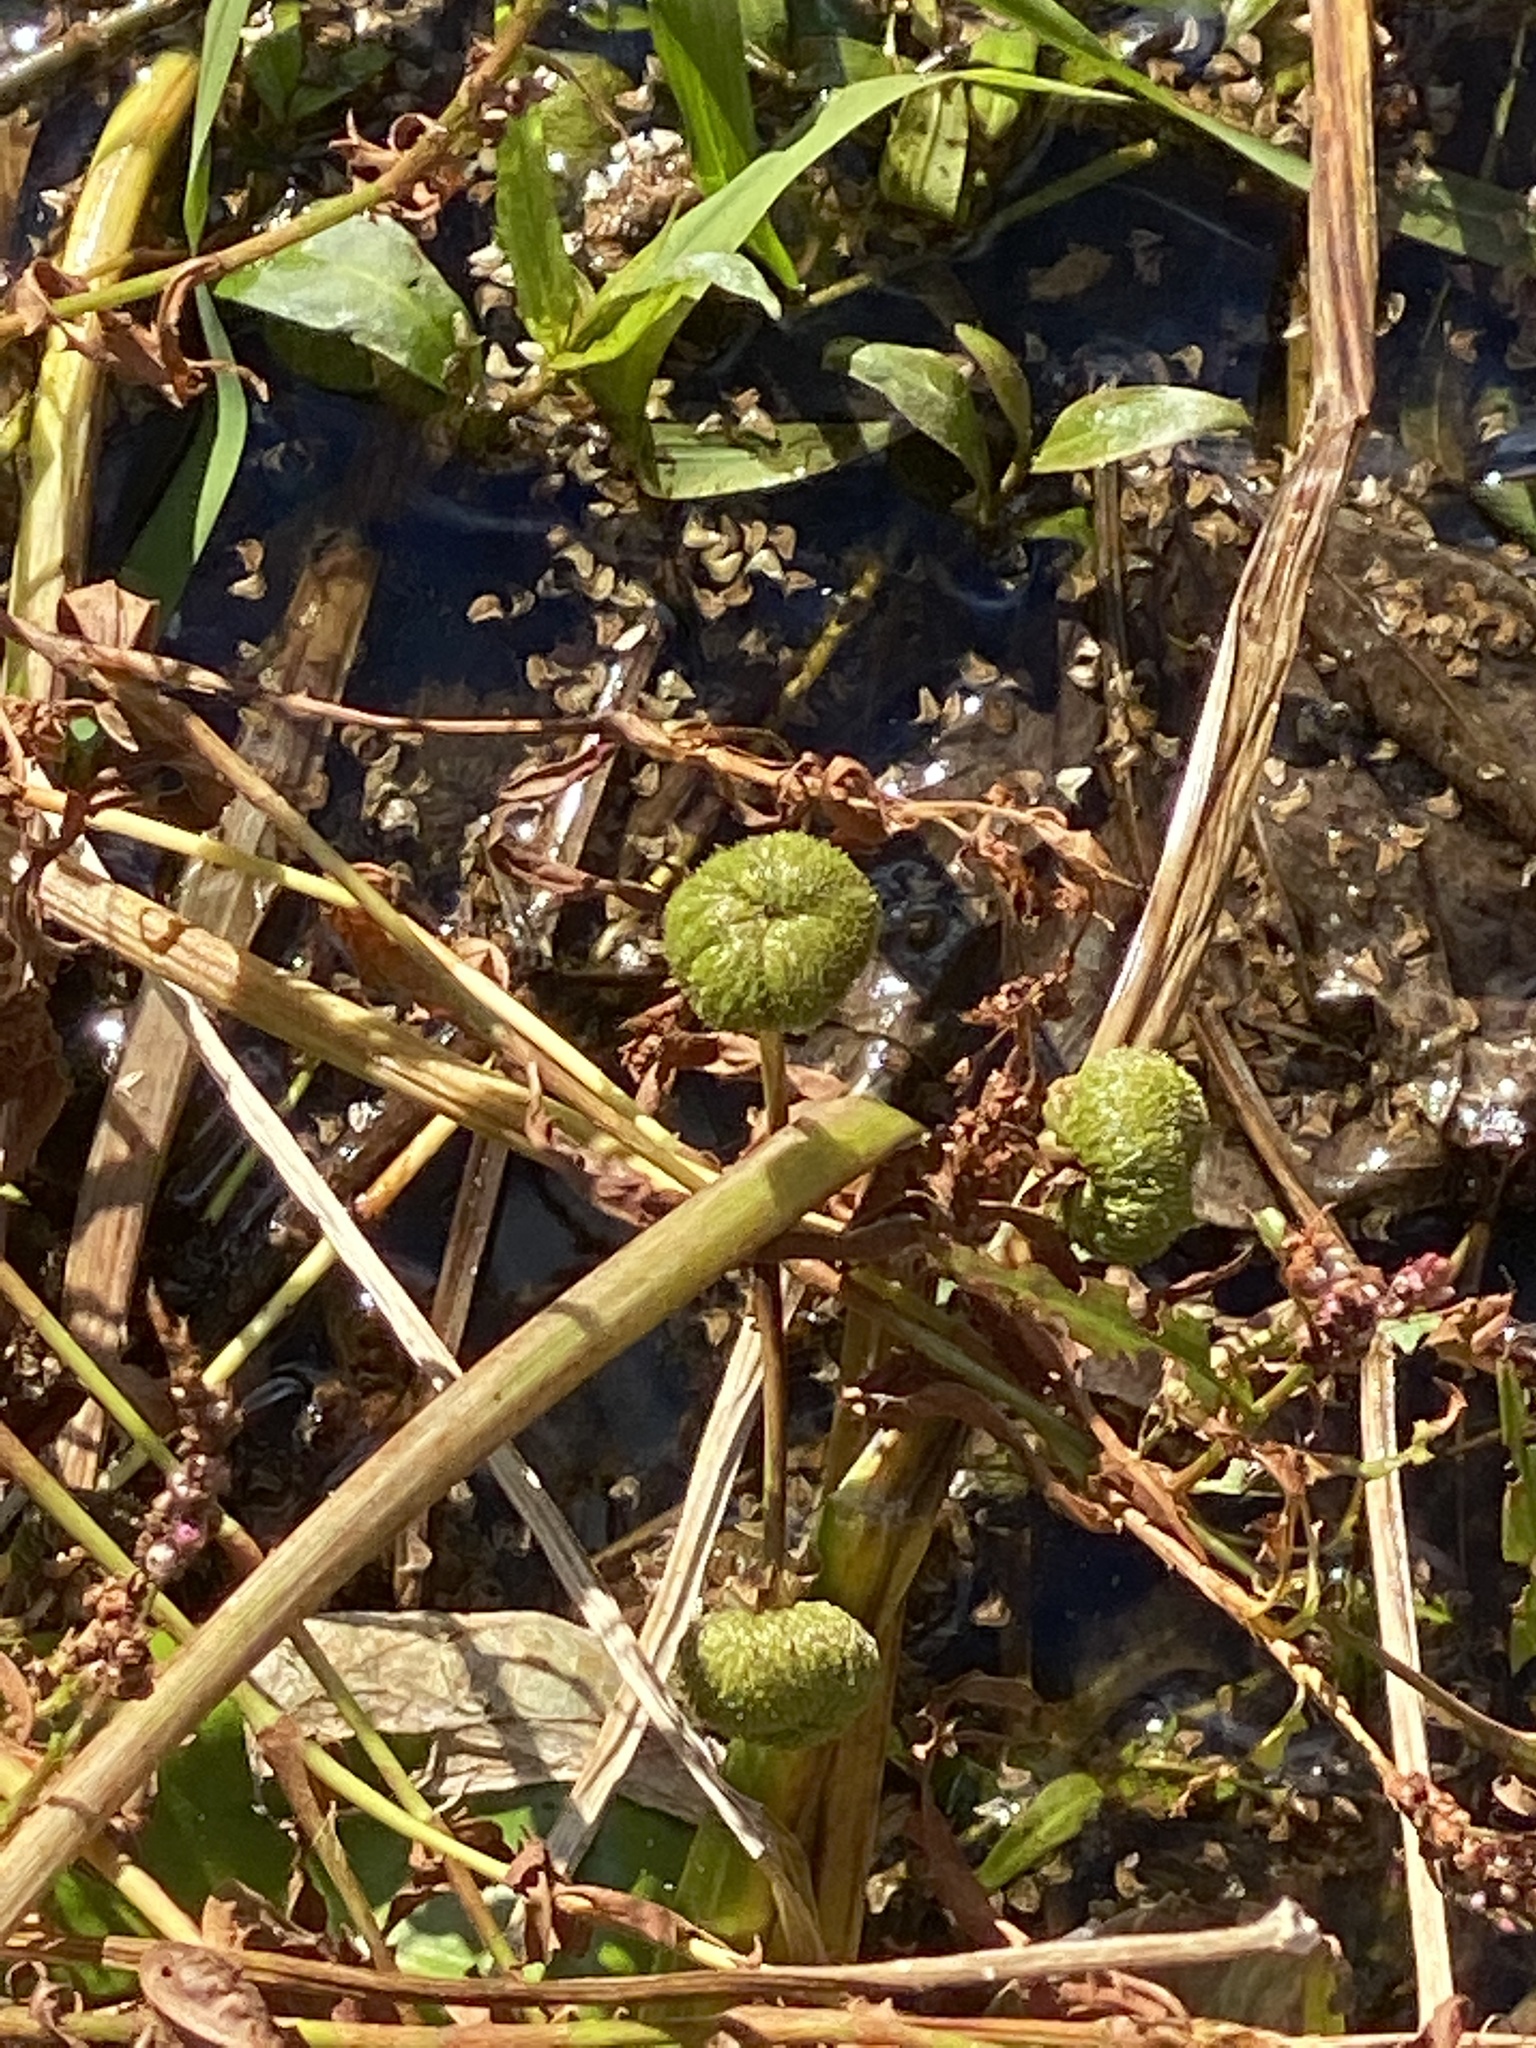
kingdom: Plantae
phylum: Tracheophyta
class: Liliopsida
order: Alismatales
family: Alismataceae
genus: Sagittaria
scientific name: Sagittaria latifolia
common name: Duck-potato
